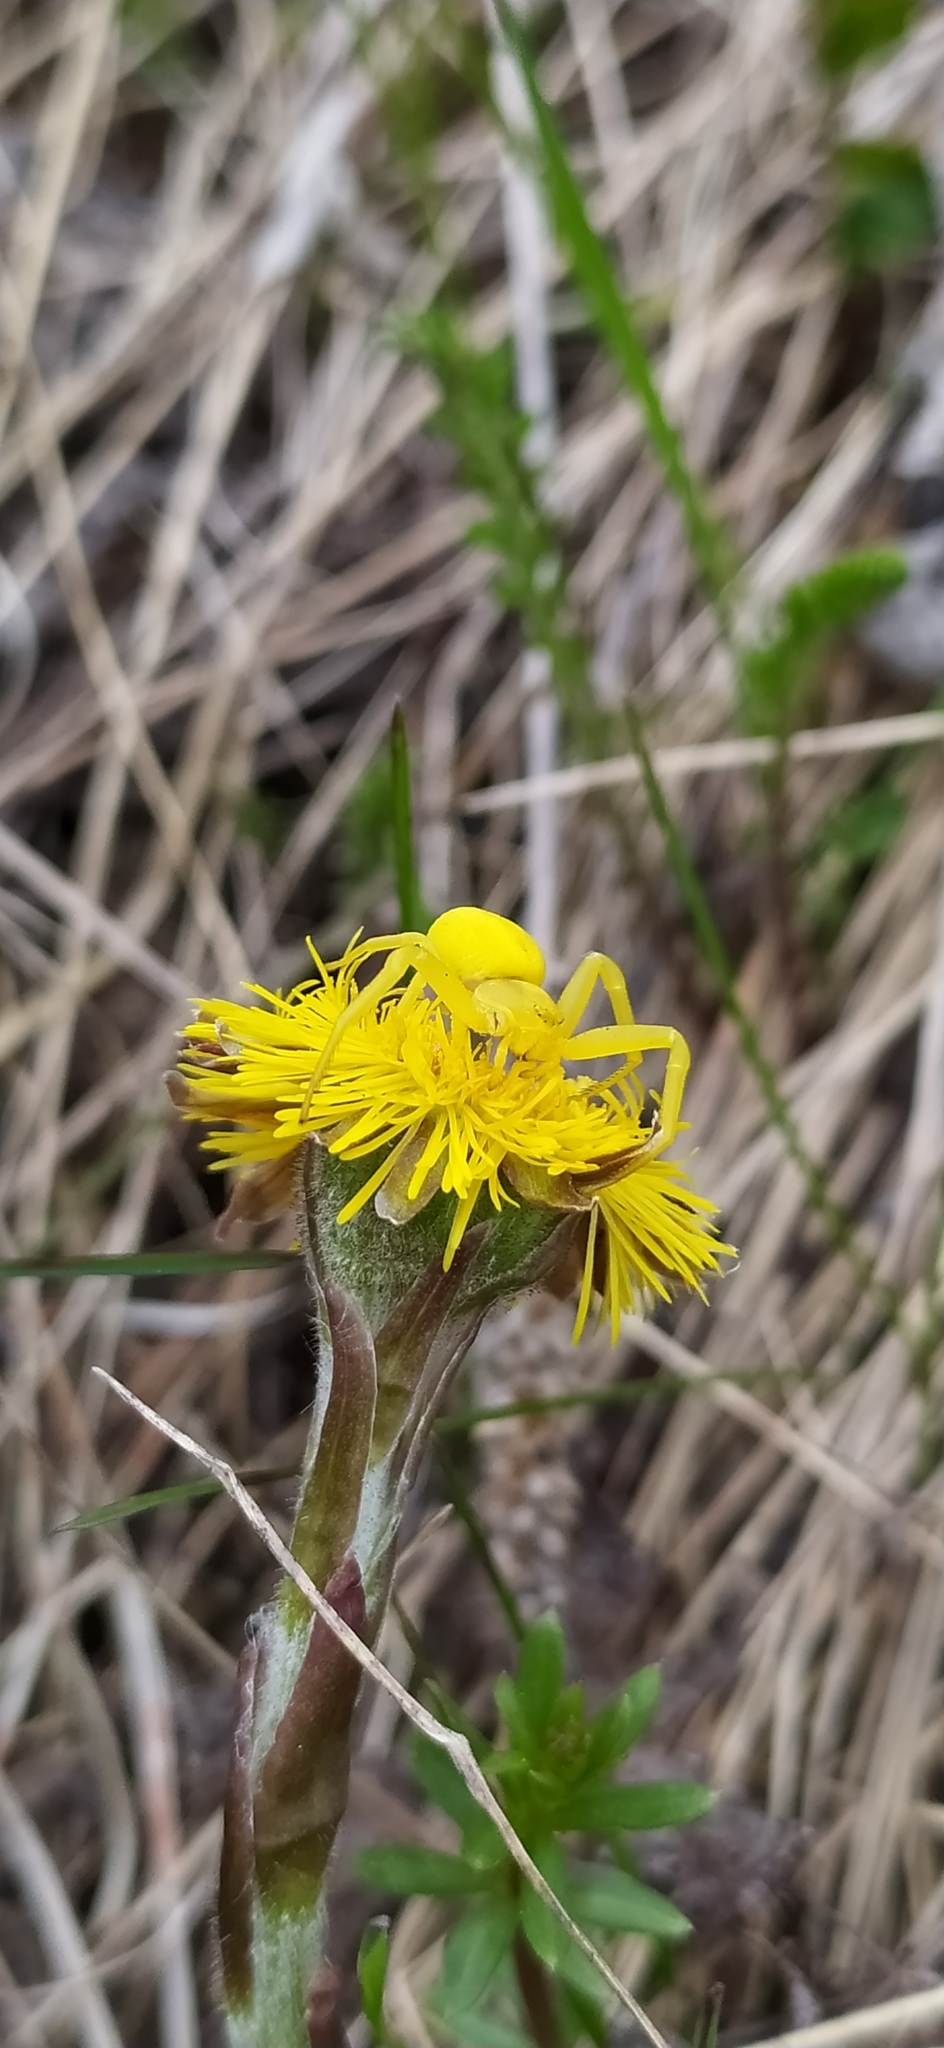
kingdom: Animalia
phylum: Arthropoda
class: Arachnida
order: Araneae
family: Thomisidae
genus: Misumena
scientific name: Misumena vatia
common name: Goldenrod crab spider
